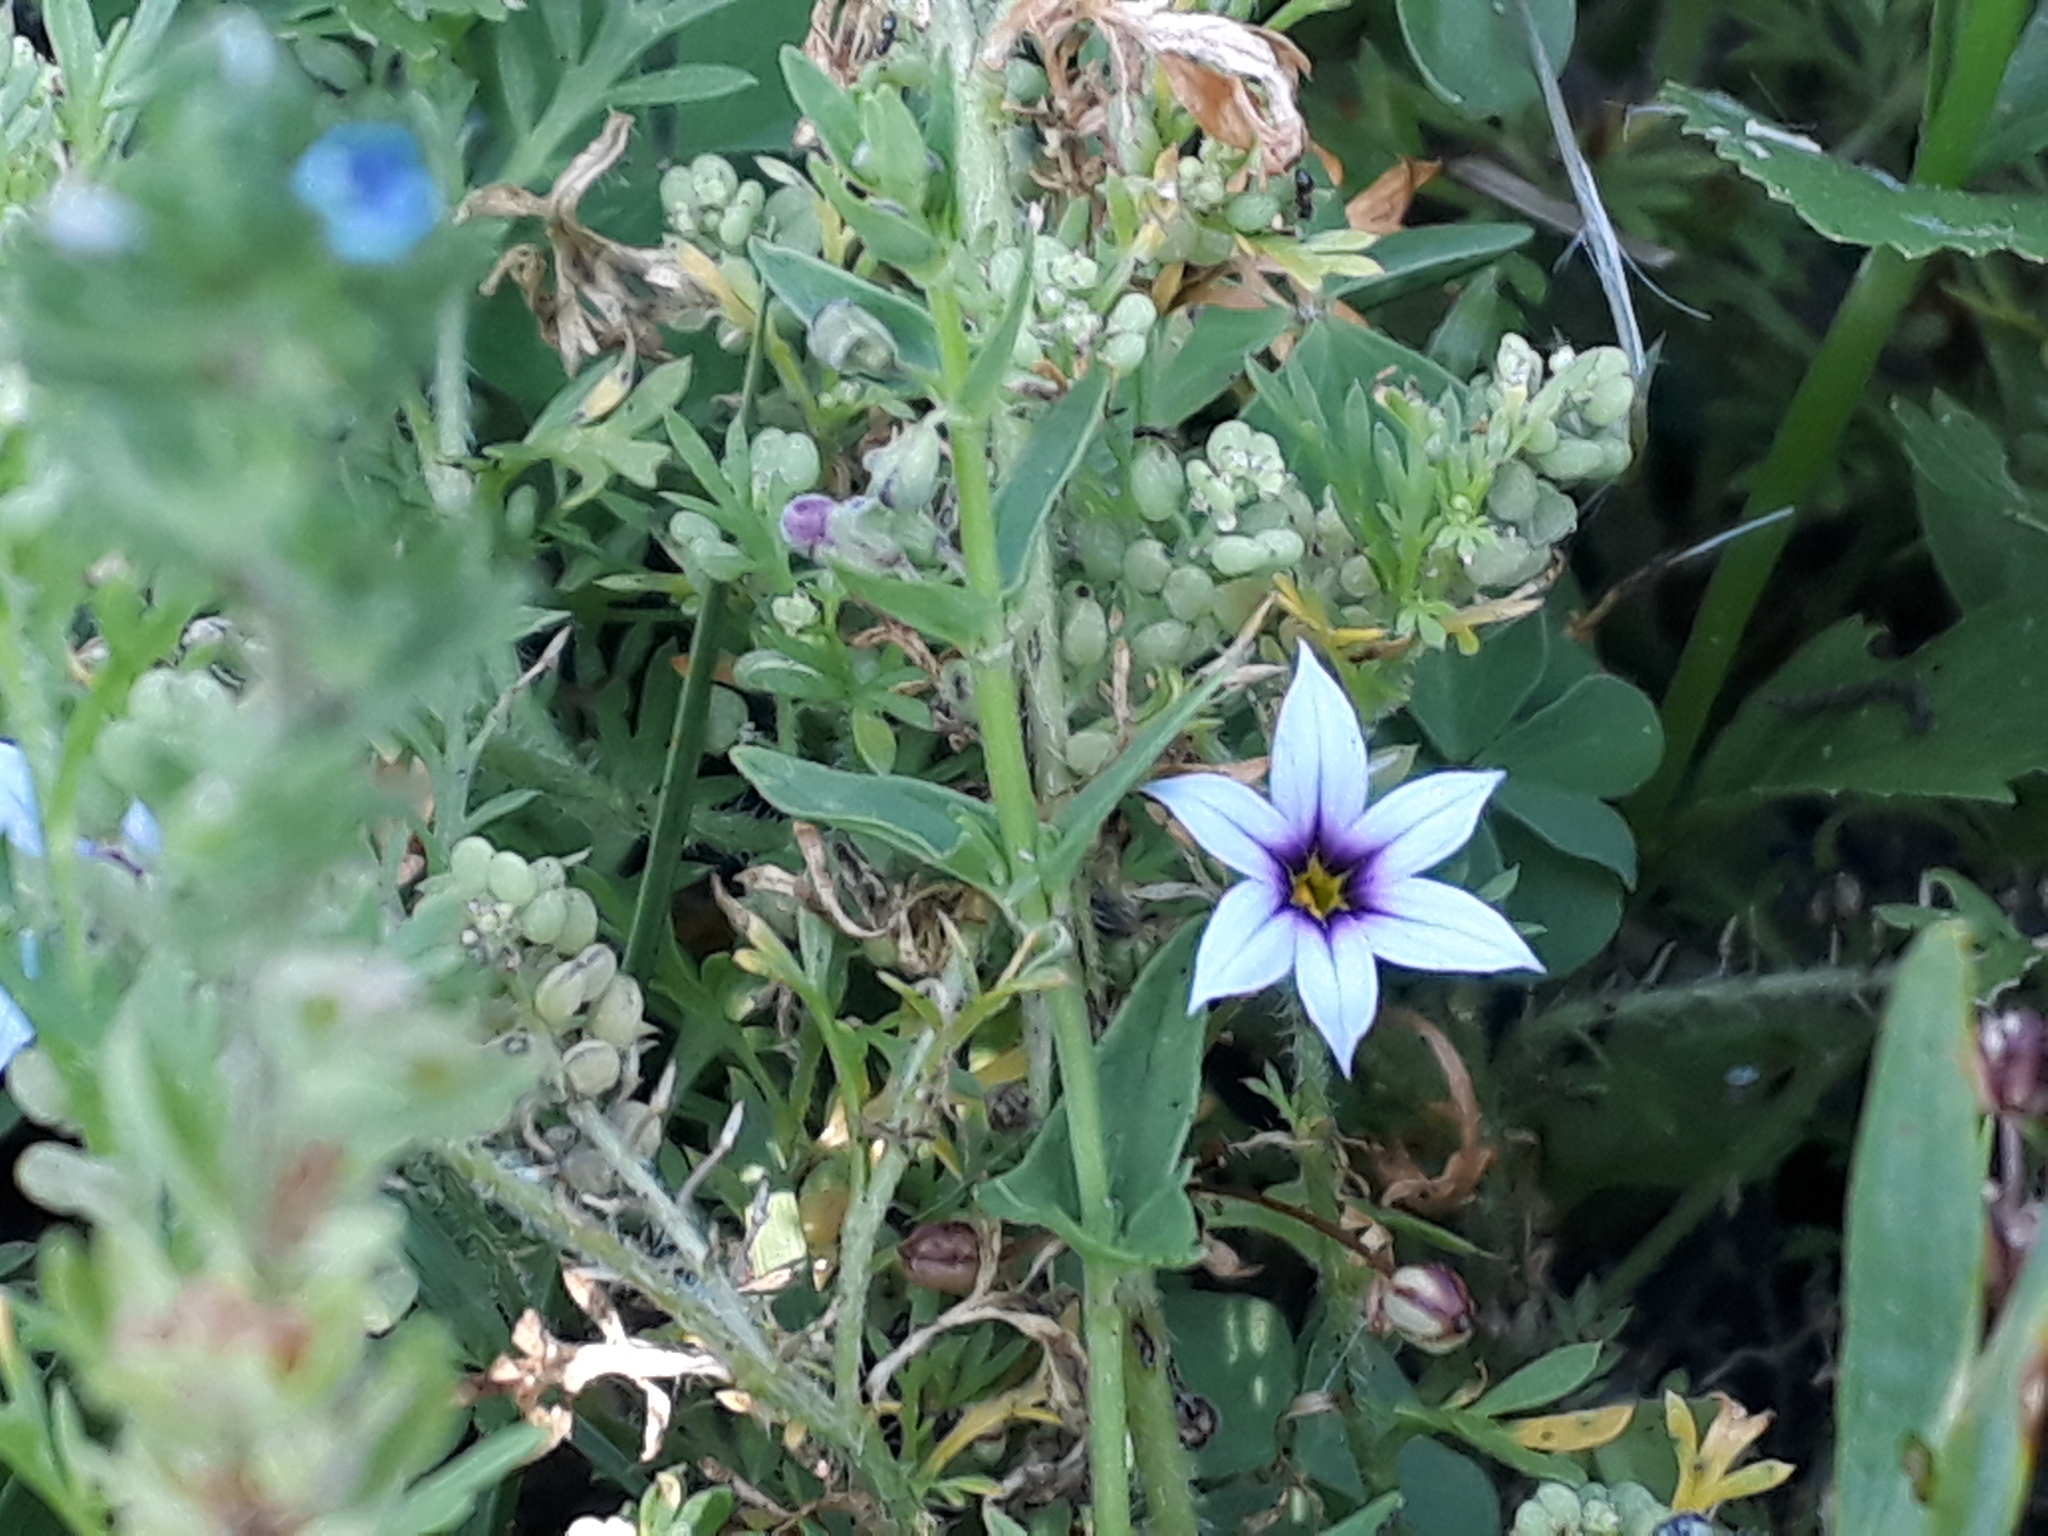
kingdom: Plantae
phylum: Tracheophyta
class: Liliopsida
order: Asparagales
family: Iridaceae
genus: Sisyrinchium
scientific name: Sisyrinchium micranthum
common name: Bermuda pigroot
